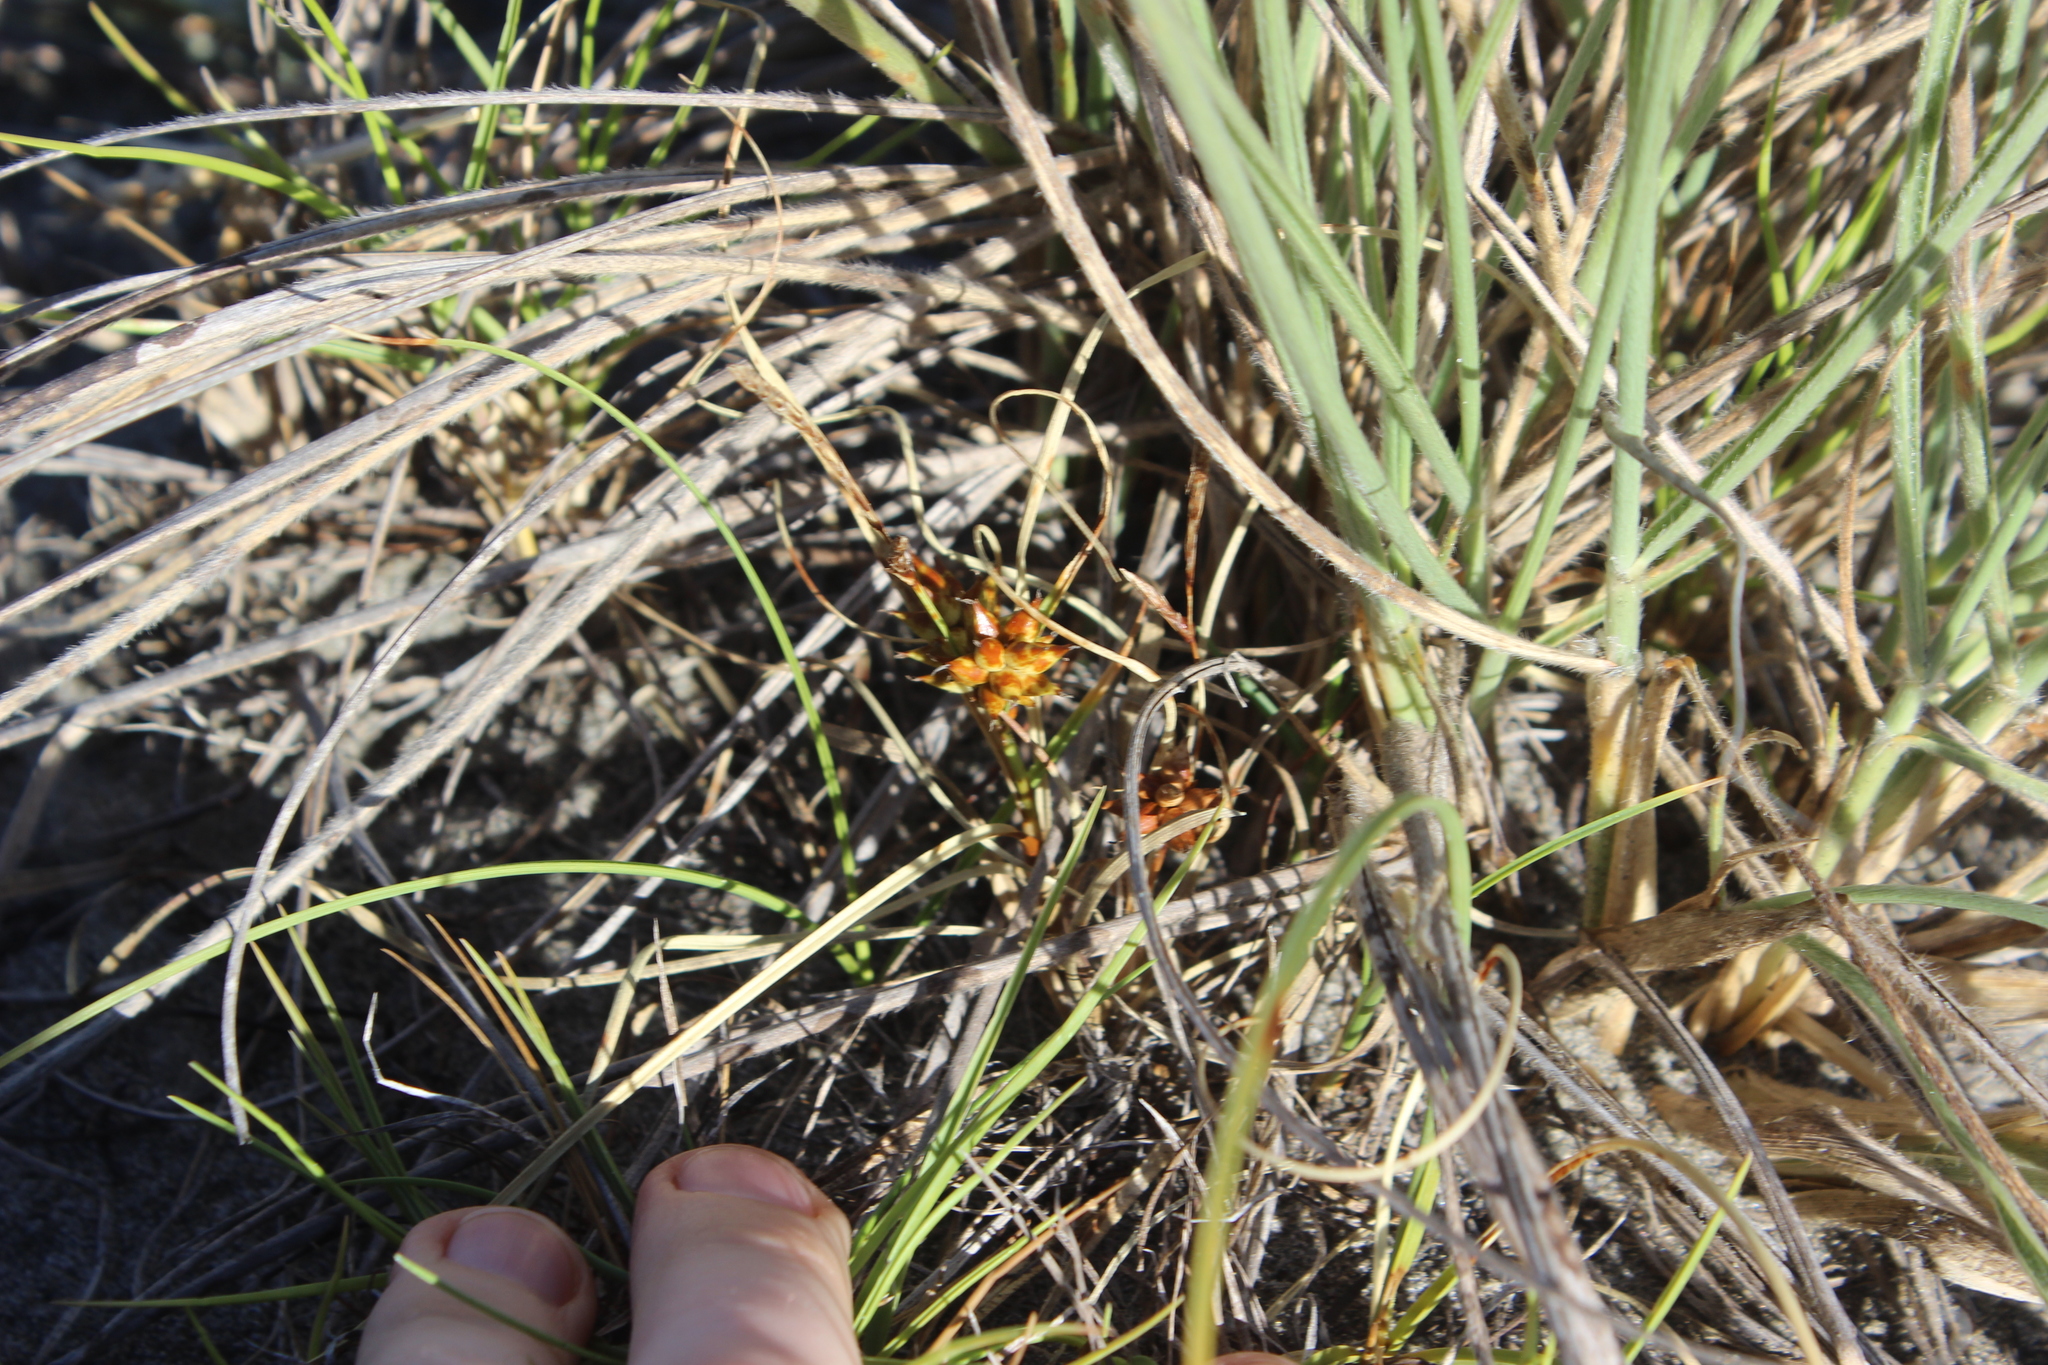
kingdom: Plantae
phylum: Tracheophyta
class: Liliopsida
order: Poales
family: Cyperaceae
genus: Carex
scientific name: Carex pumila
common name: Dwarf sedge
